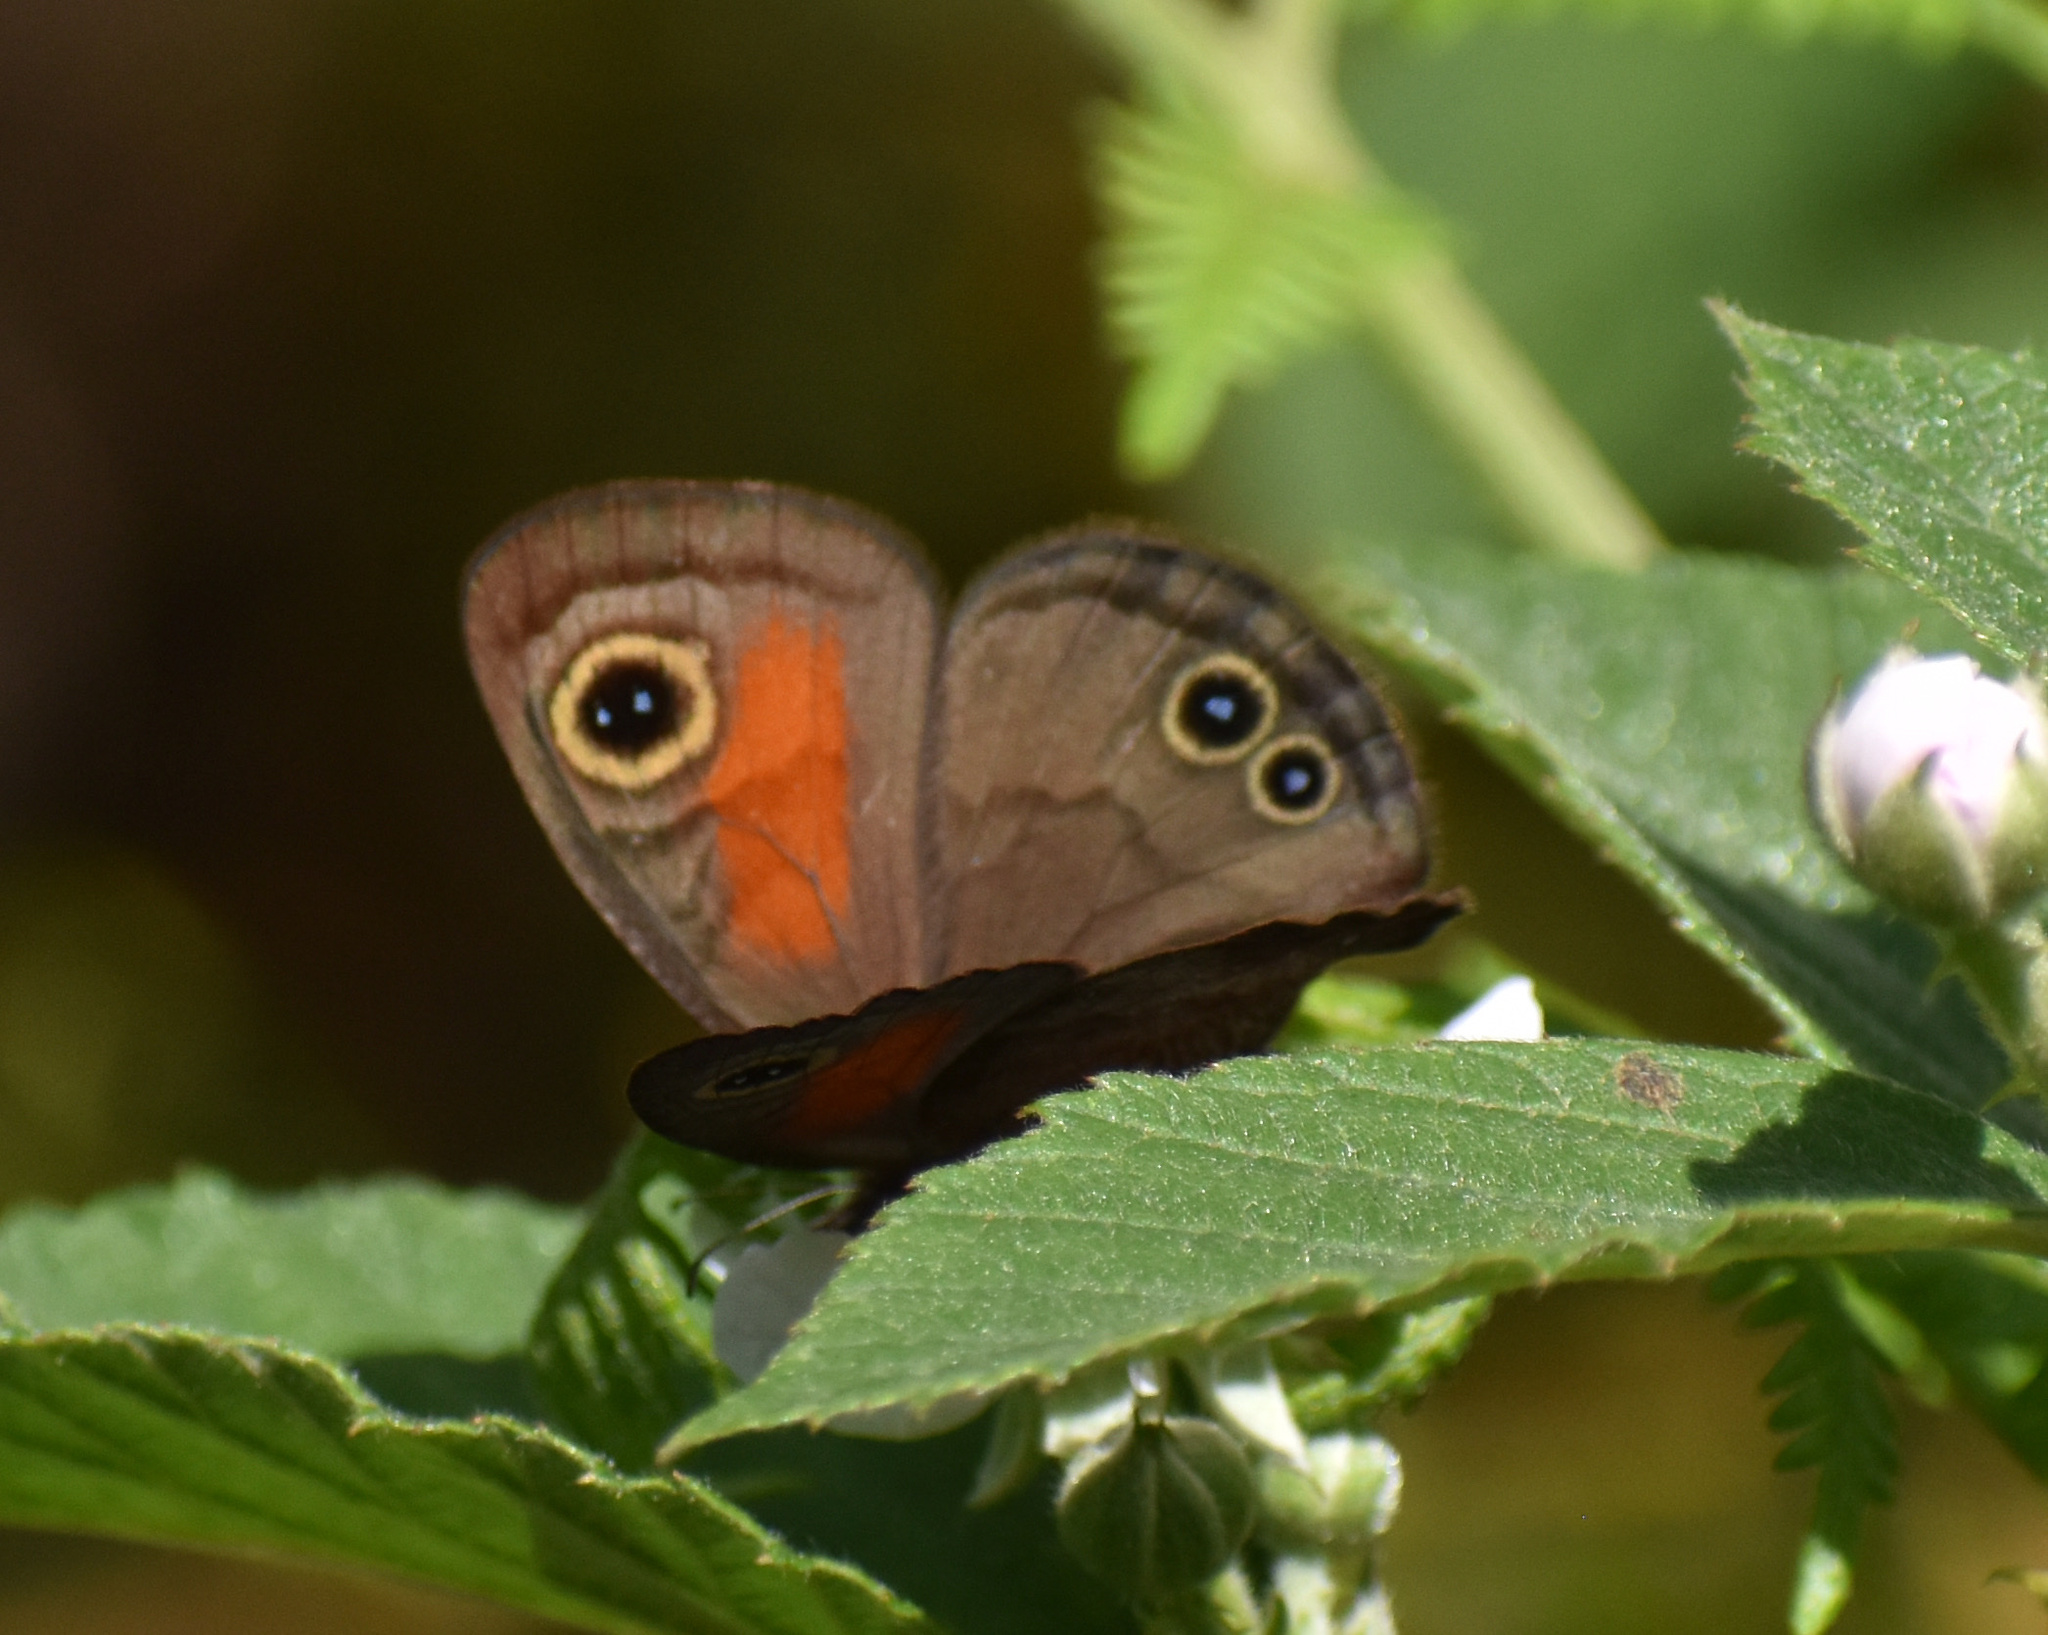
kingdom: Animalia
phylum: Arthropoda
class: Insecta
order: Lepidoptera
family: Nymphalidae
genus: Cassionympha
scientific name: Cassionympha cassius
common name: Rainforest brown
